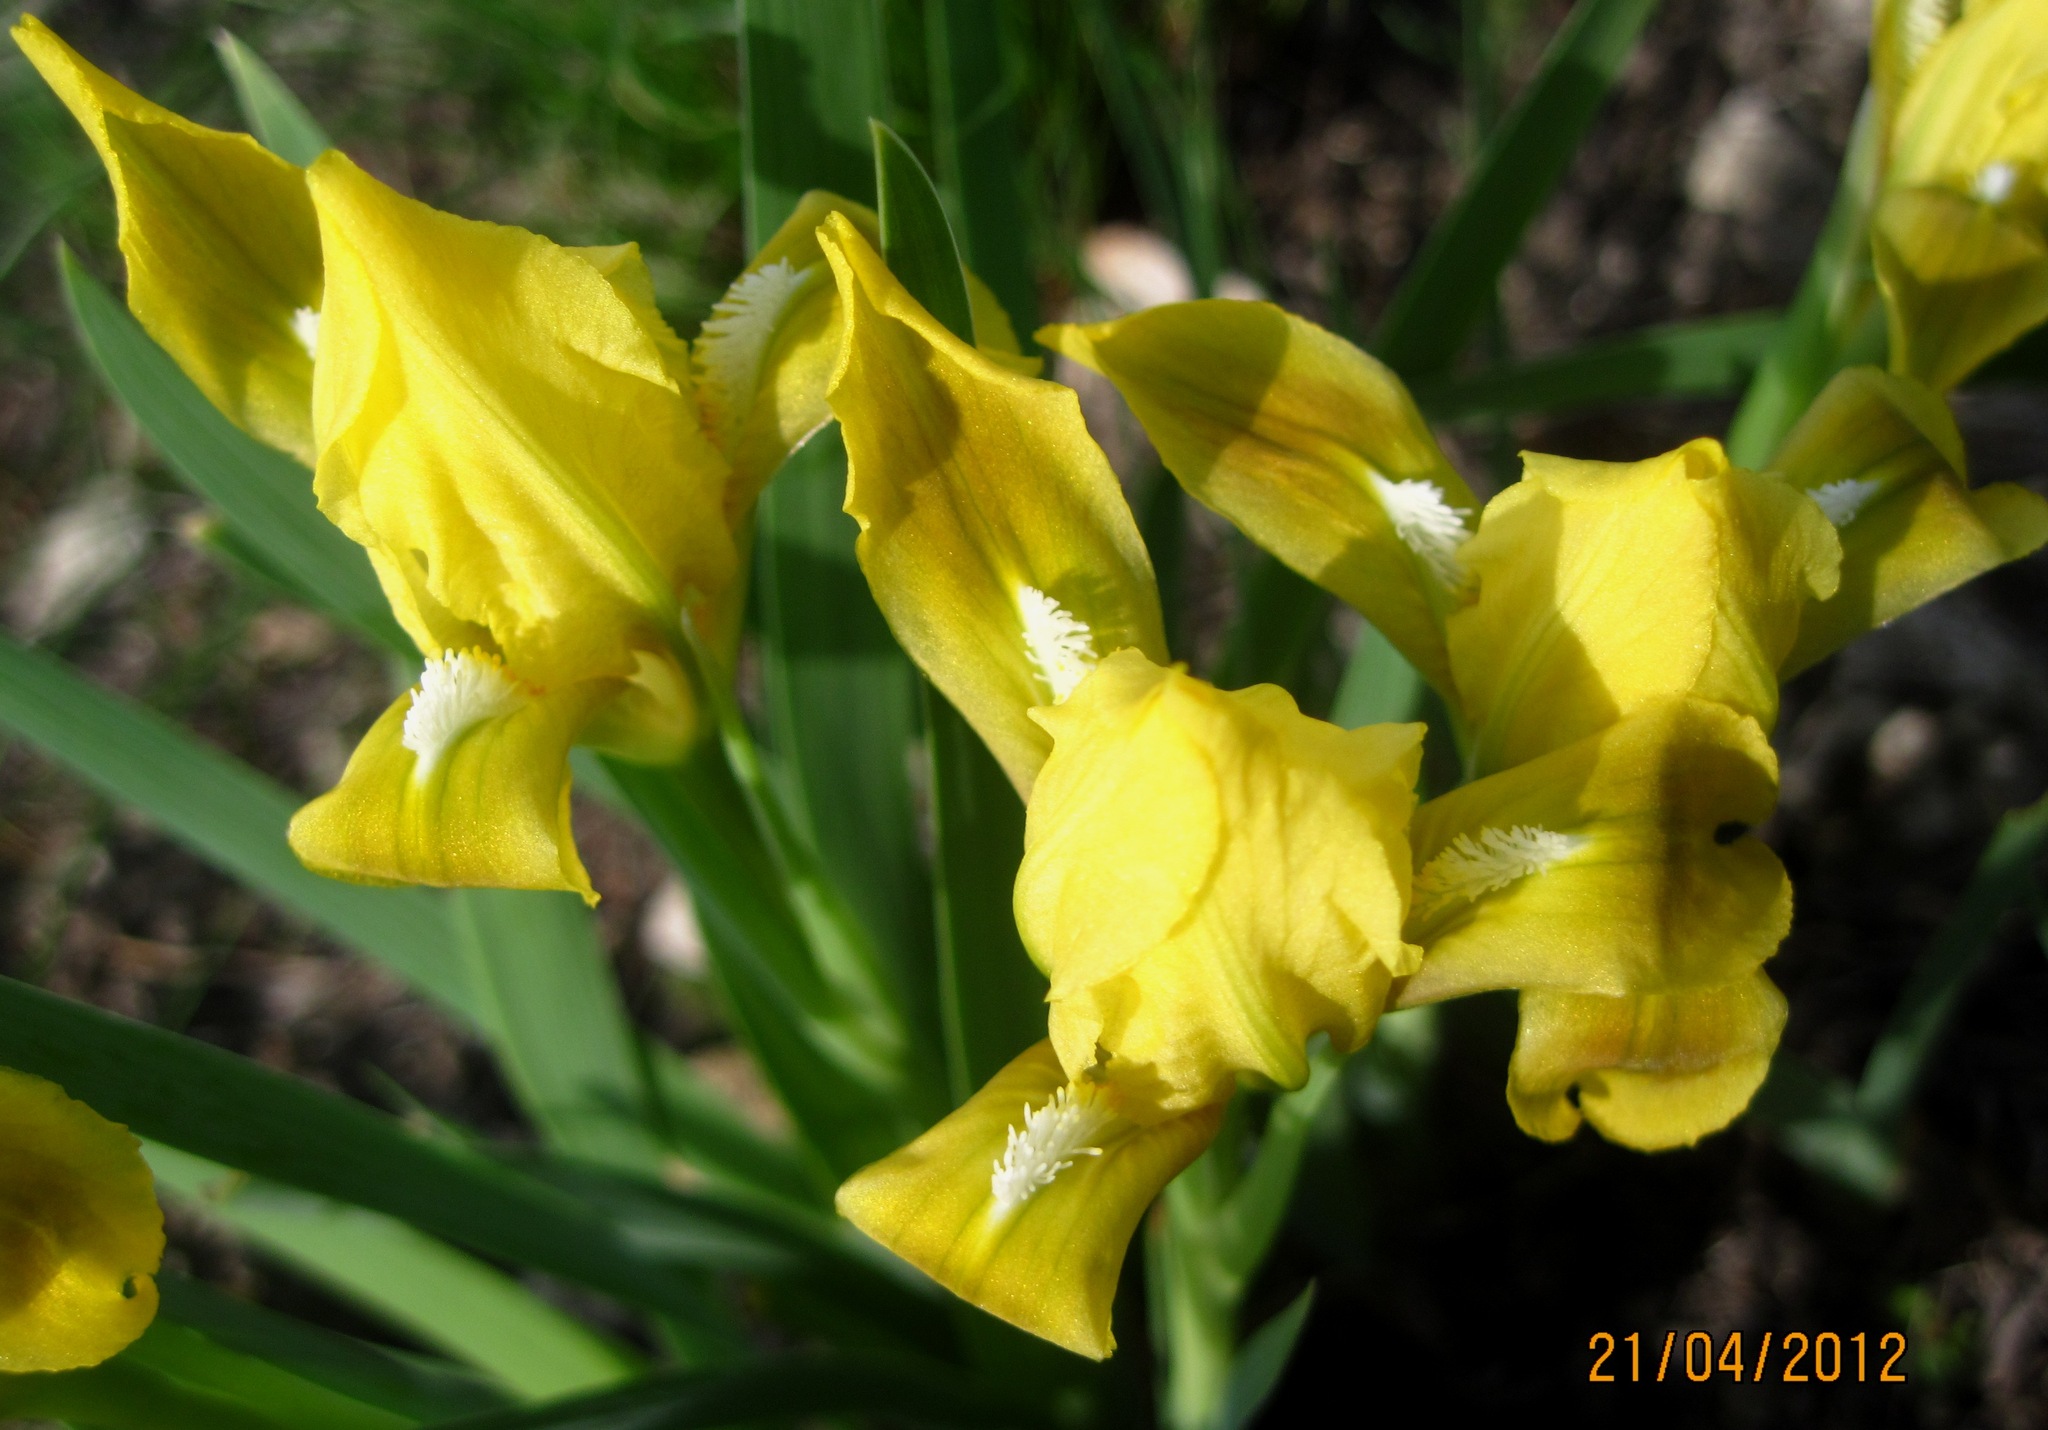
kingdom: Plantae
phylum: Tracheophyta
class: Liliopsida
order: Asparagales
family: Iridaceae
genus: Iris
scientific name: Iris pumila
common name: Dwarf iris
